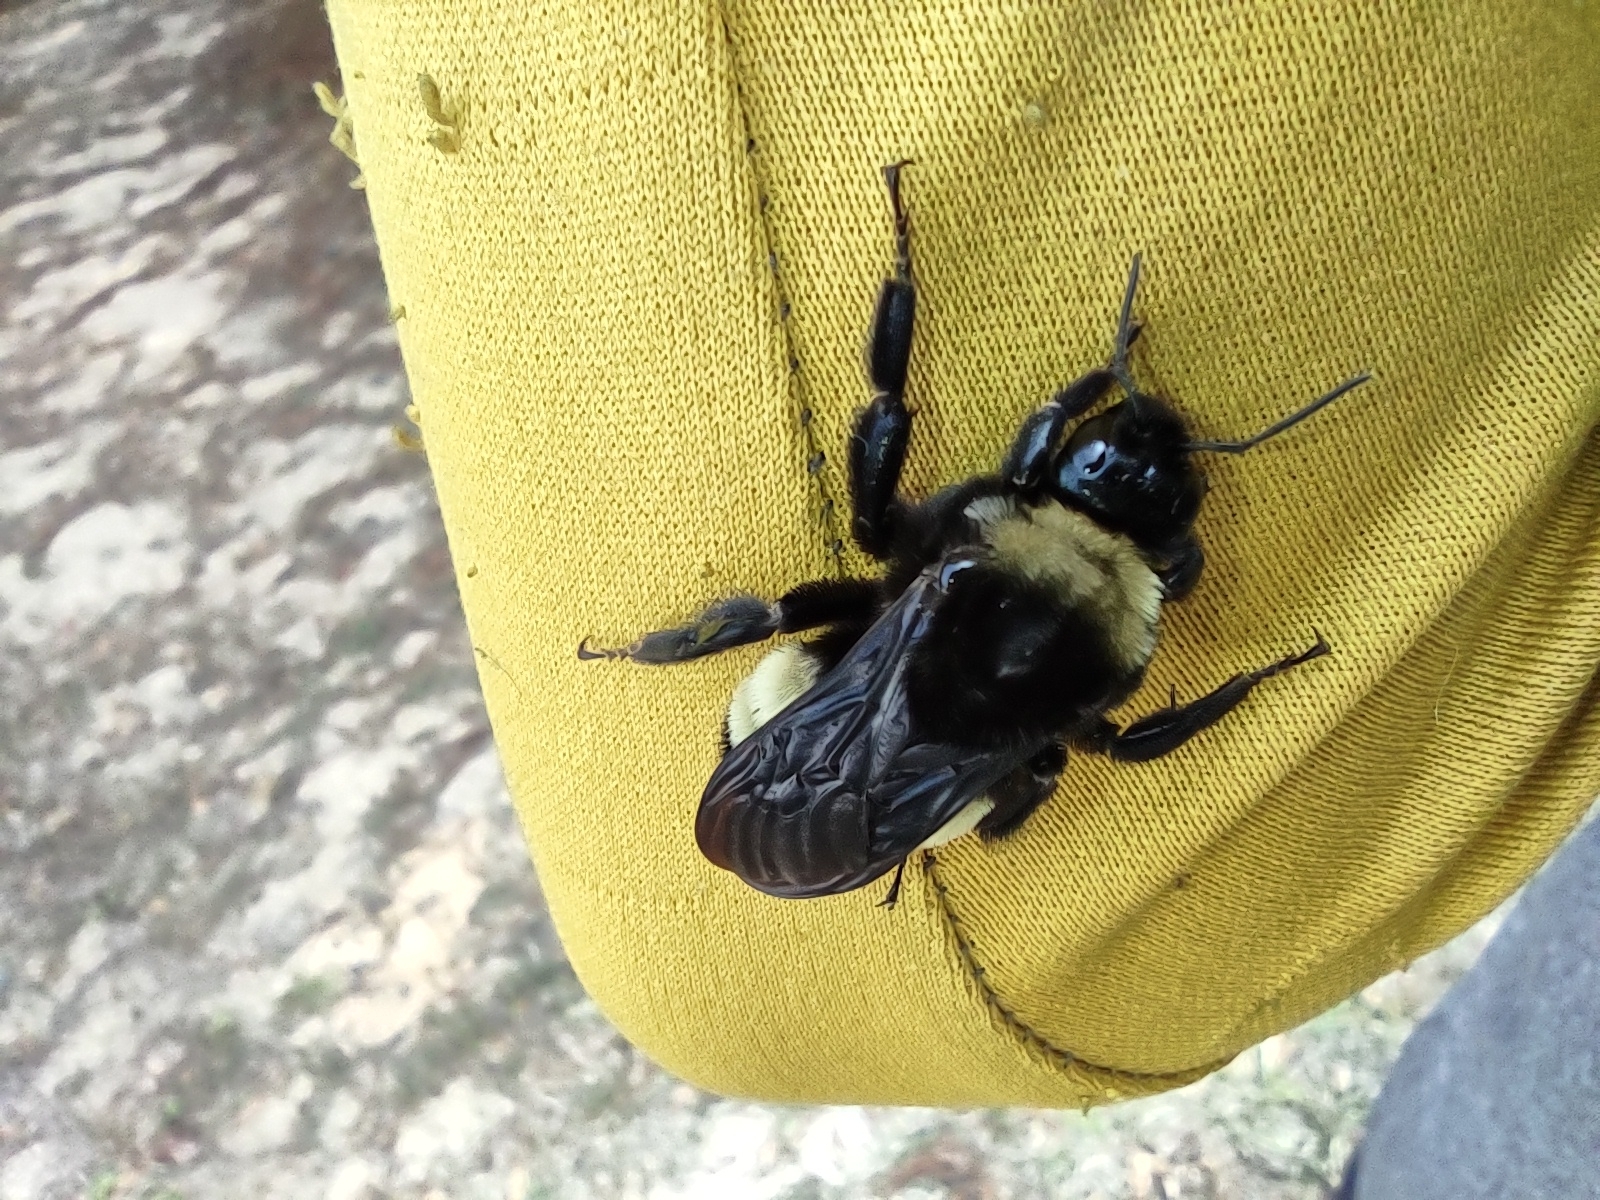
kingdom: Animalia
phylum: Arthropoda
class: Insecta
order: Hymenoptera
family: Apidae
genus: Bombus
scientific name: Bombus pensylvanicus
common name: Bumble bee
